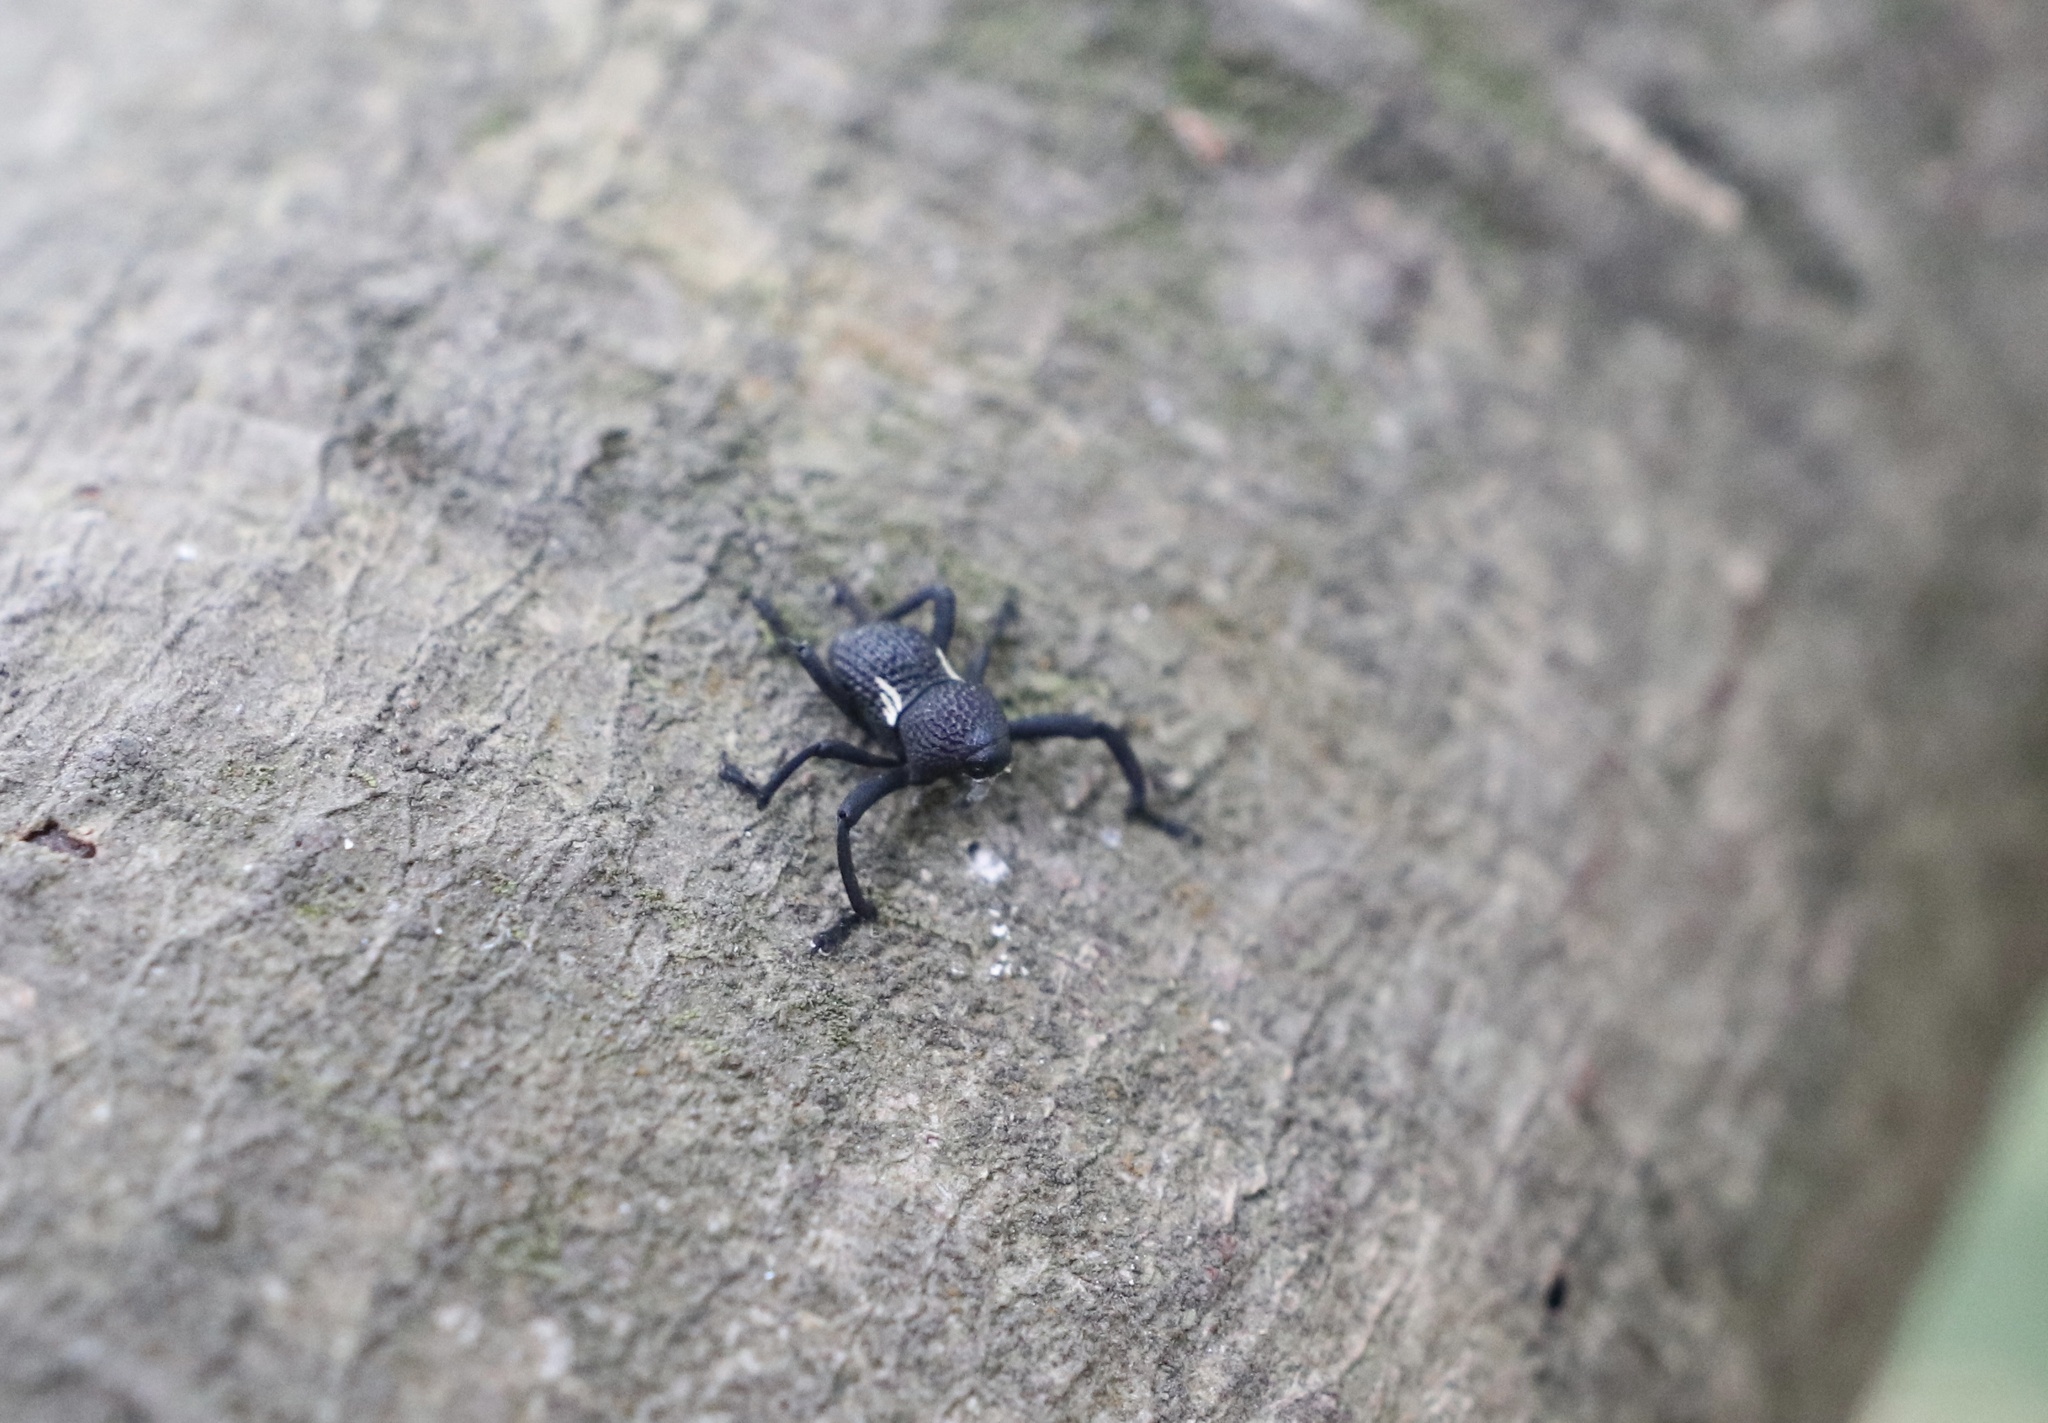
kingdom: Animalia
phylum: Arthropoda
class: Insecta
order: Coleoptera
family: Curculionidae
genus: Rhyephenes
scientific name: Rhyephenes humeralis
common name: Araè±ita chilena del pino
